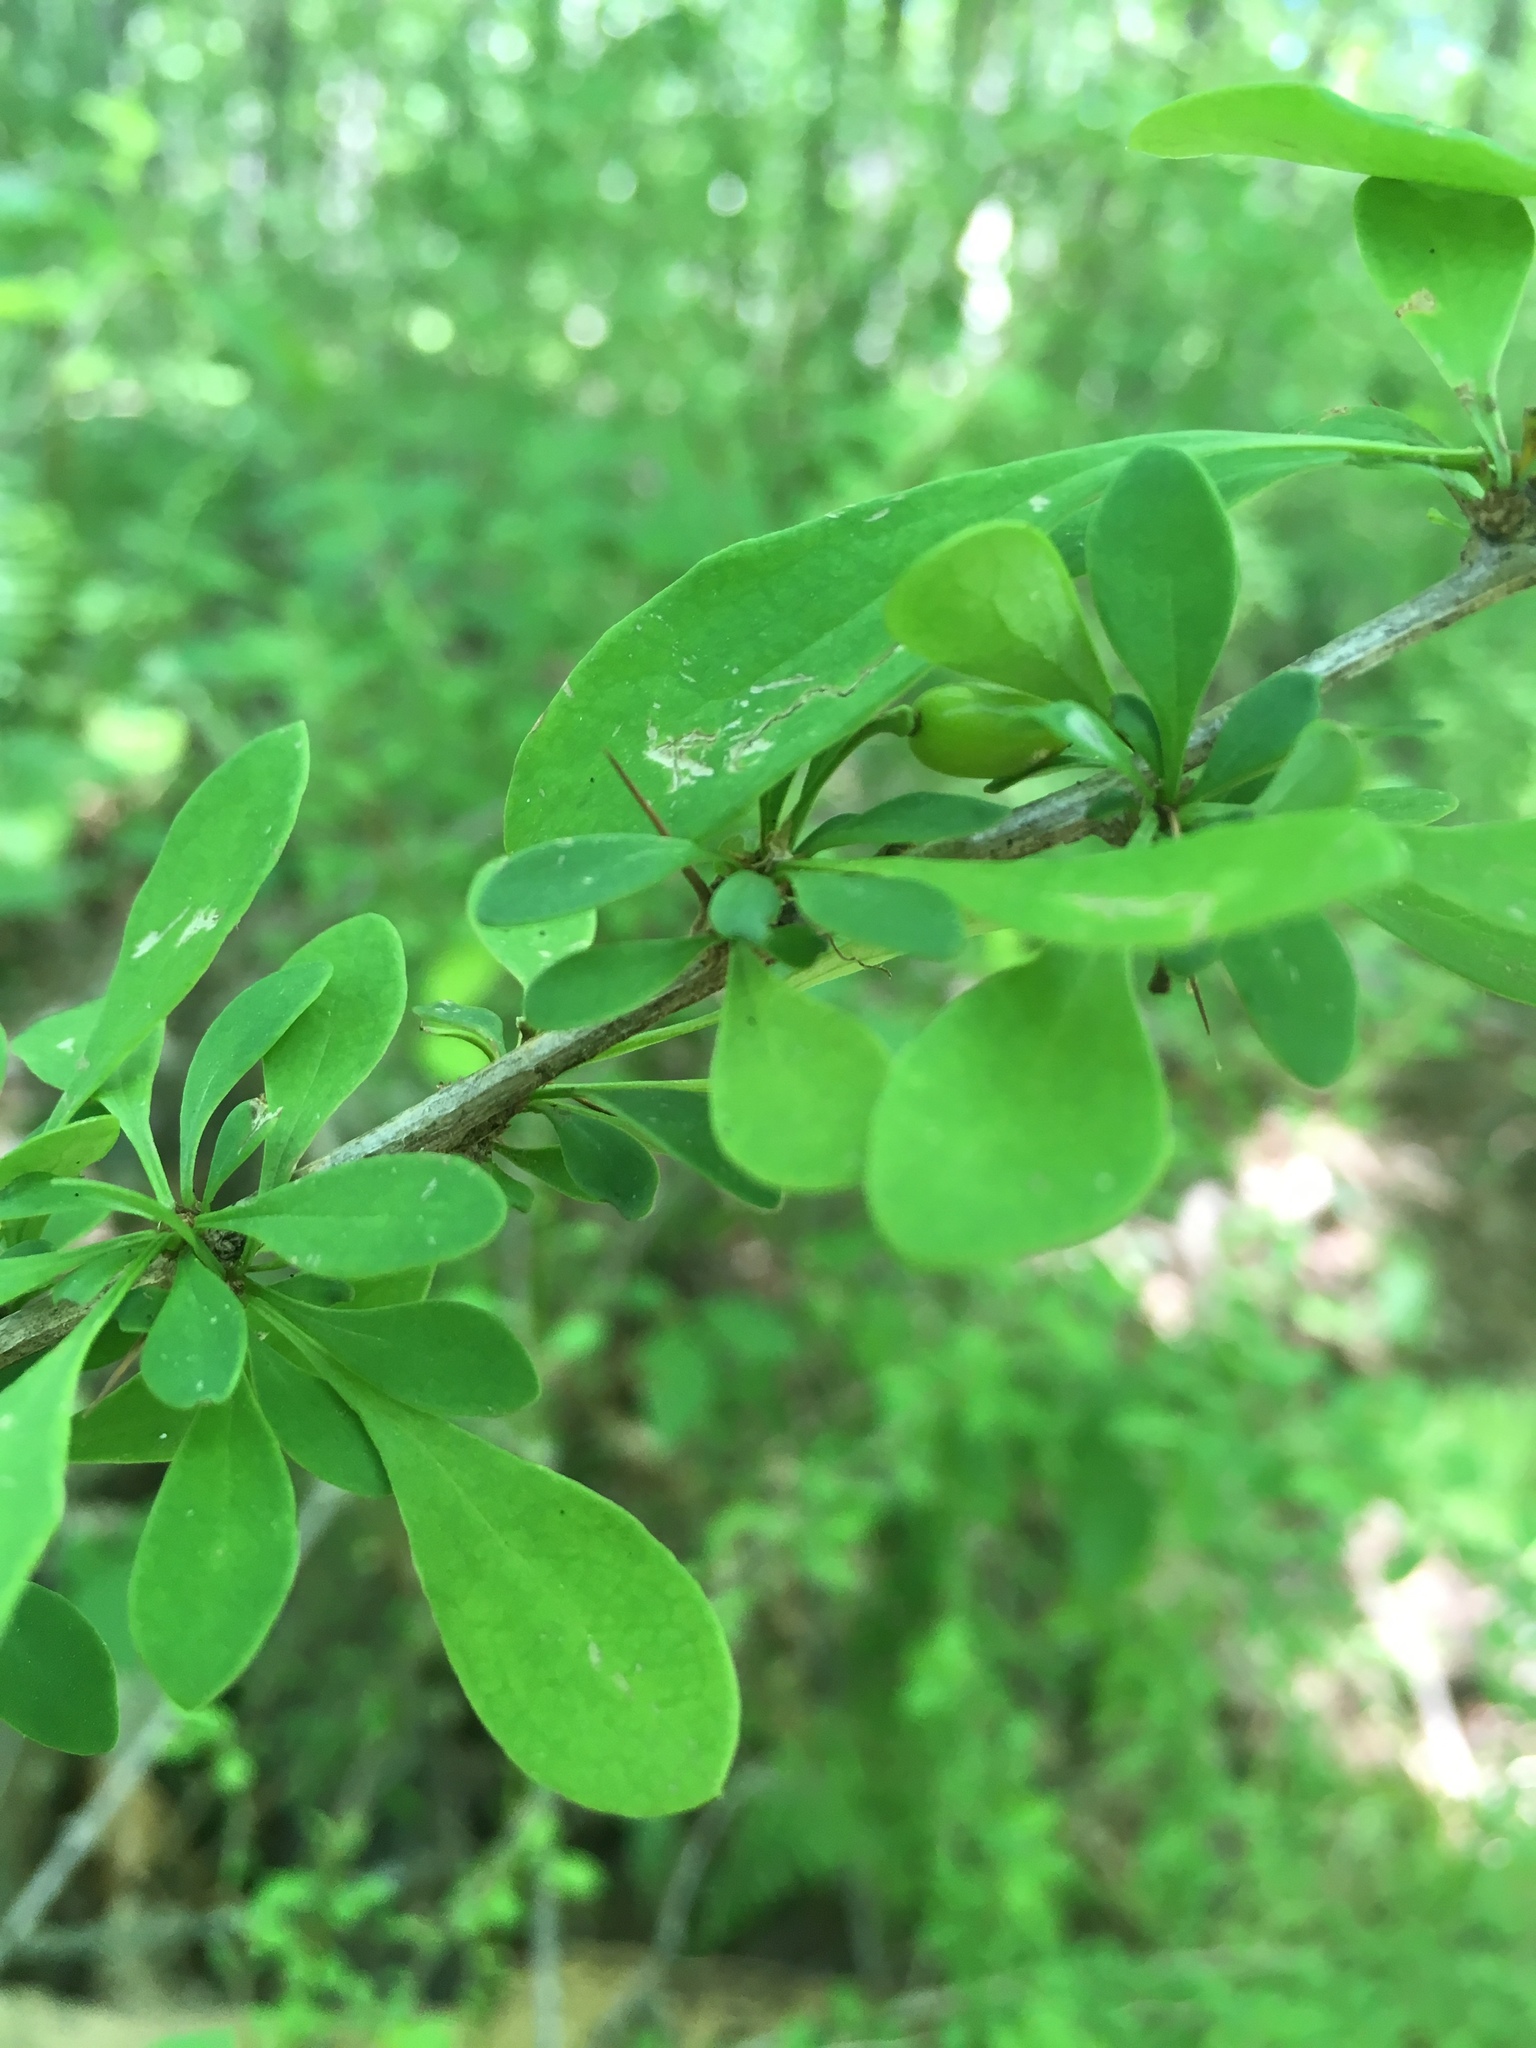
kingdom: Plantae
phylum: Tracheophyta
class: Magnoliopsida
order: Ranunculales
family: Berberidaceae
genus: Berberis
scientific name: Berberis thunbergii
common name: Japanese barberry
